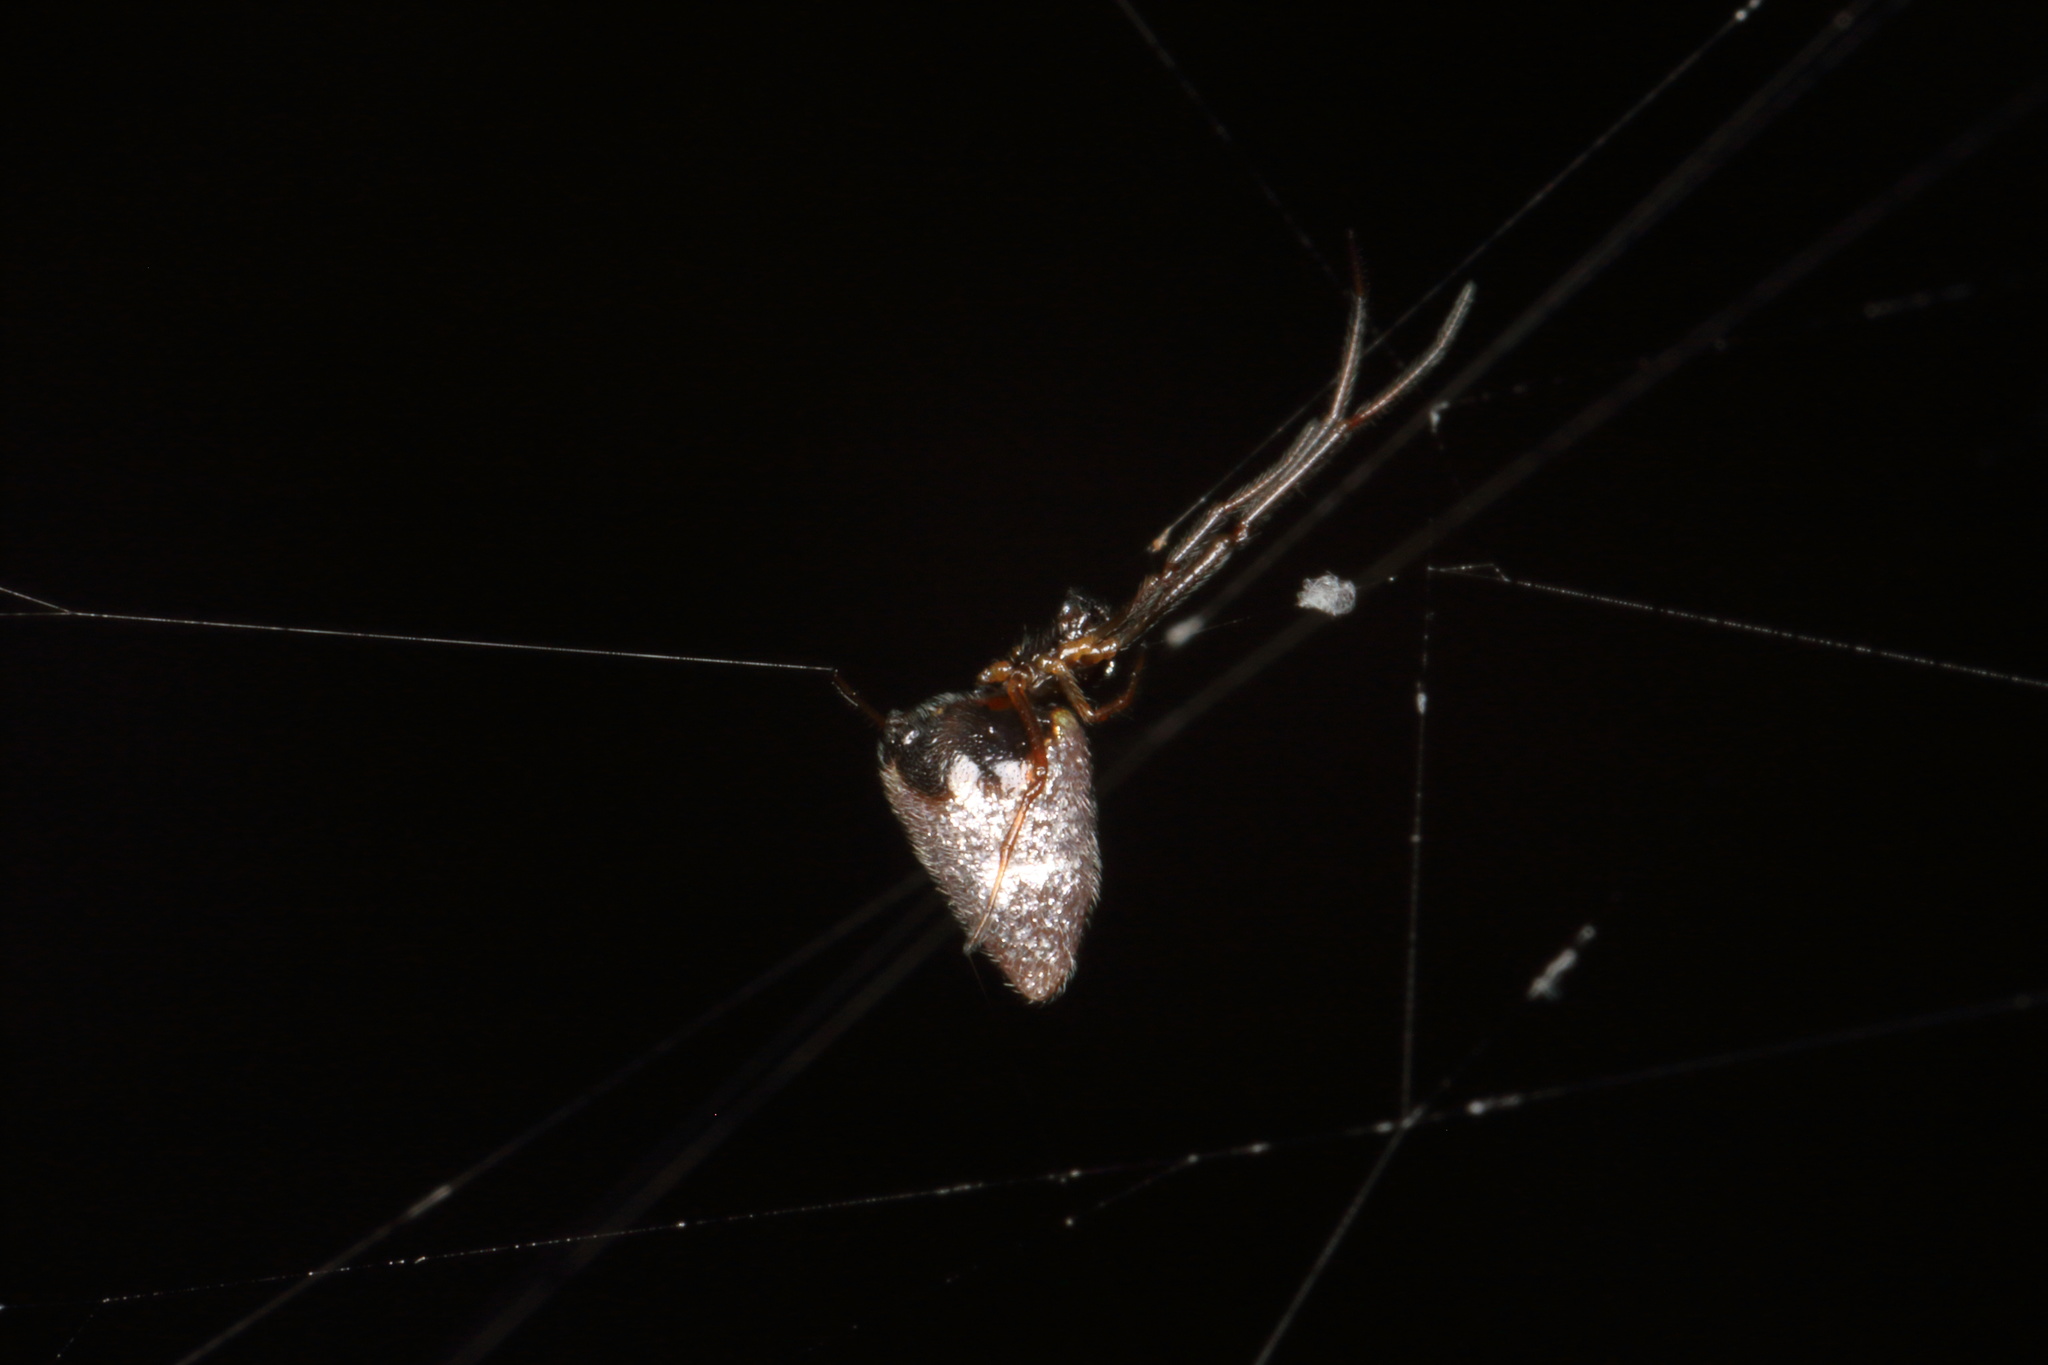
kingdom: Animalia
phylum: Arthropoda
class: Arachnida
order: Araneae
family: Theridiidae
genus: Argyrodes
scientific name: Argyrodes antipodianus
